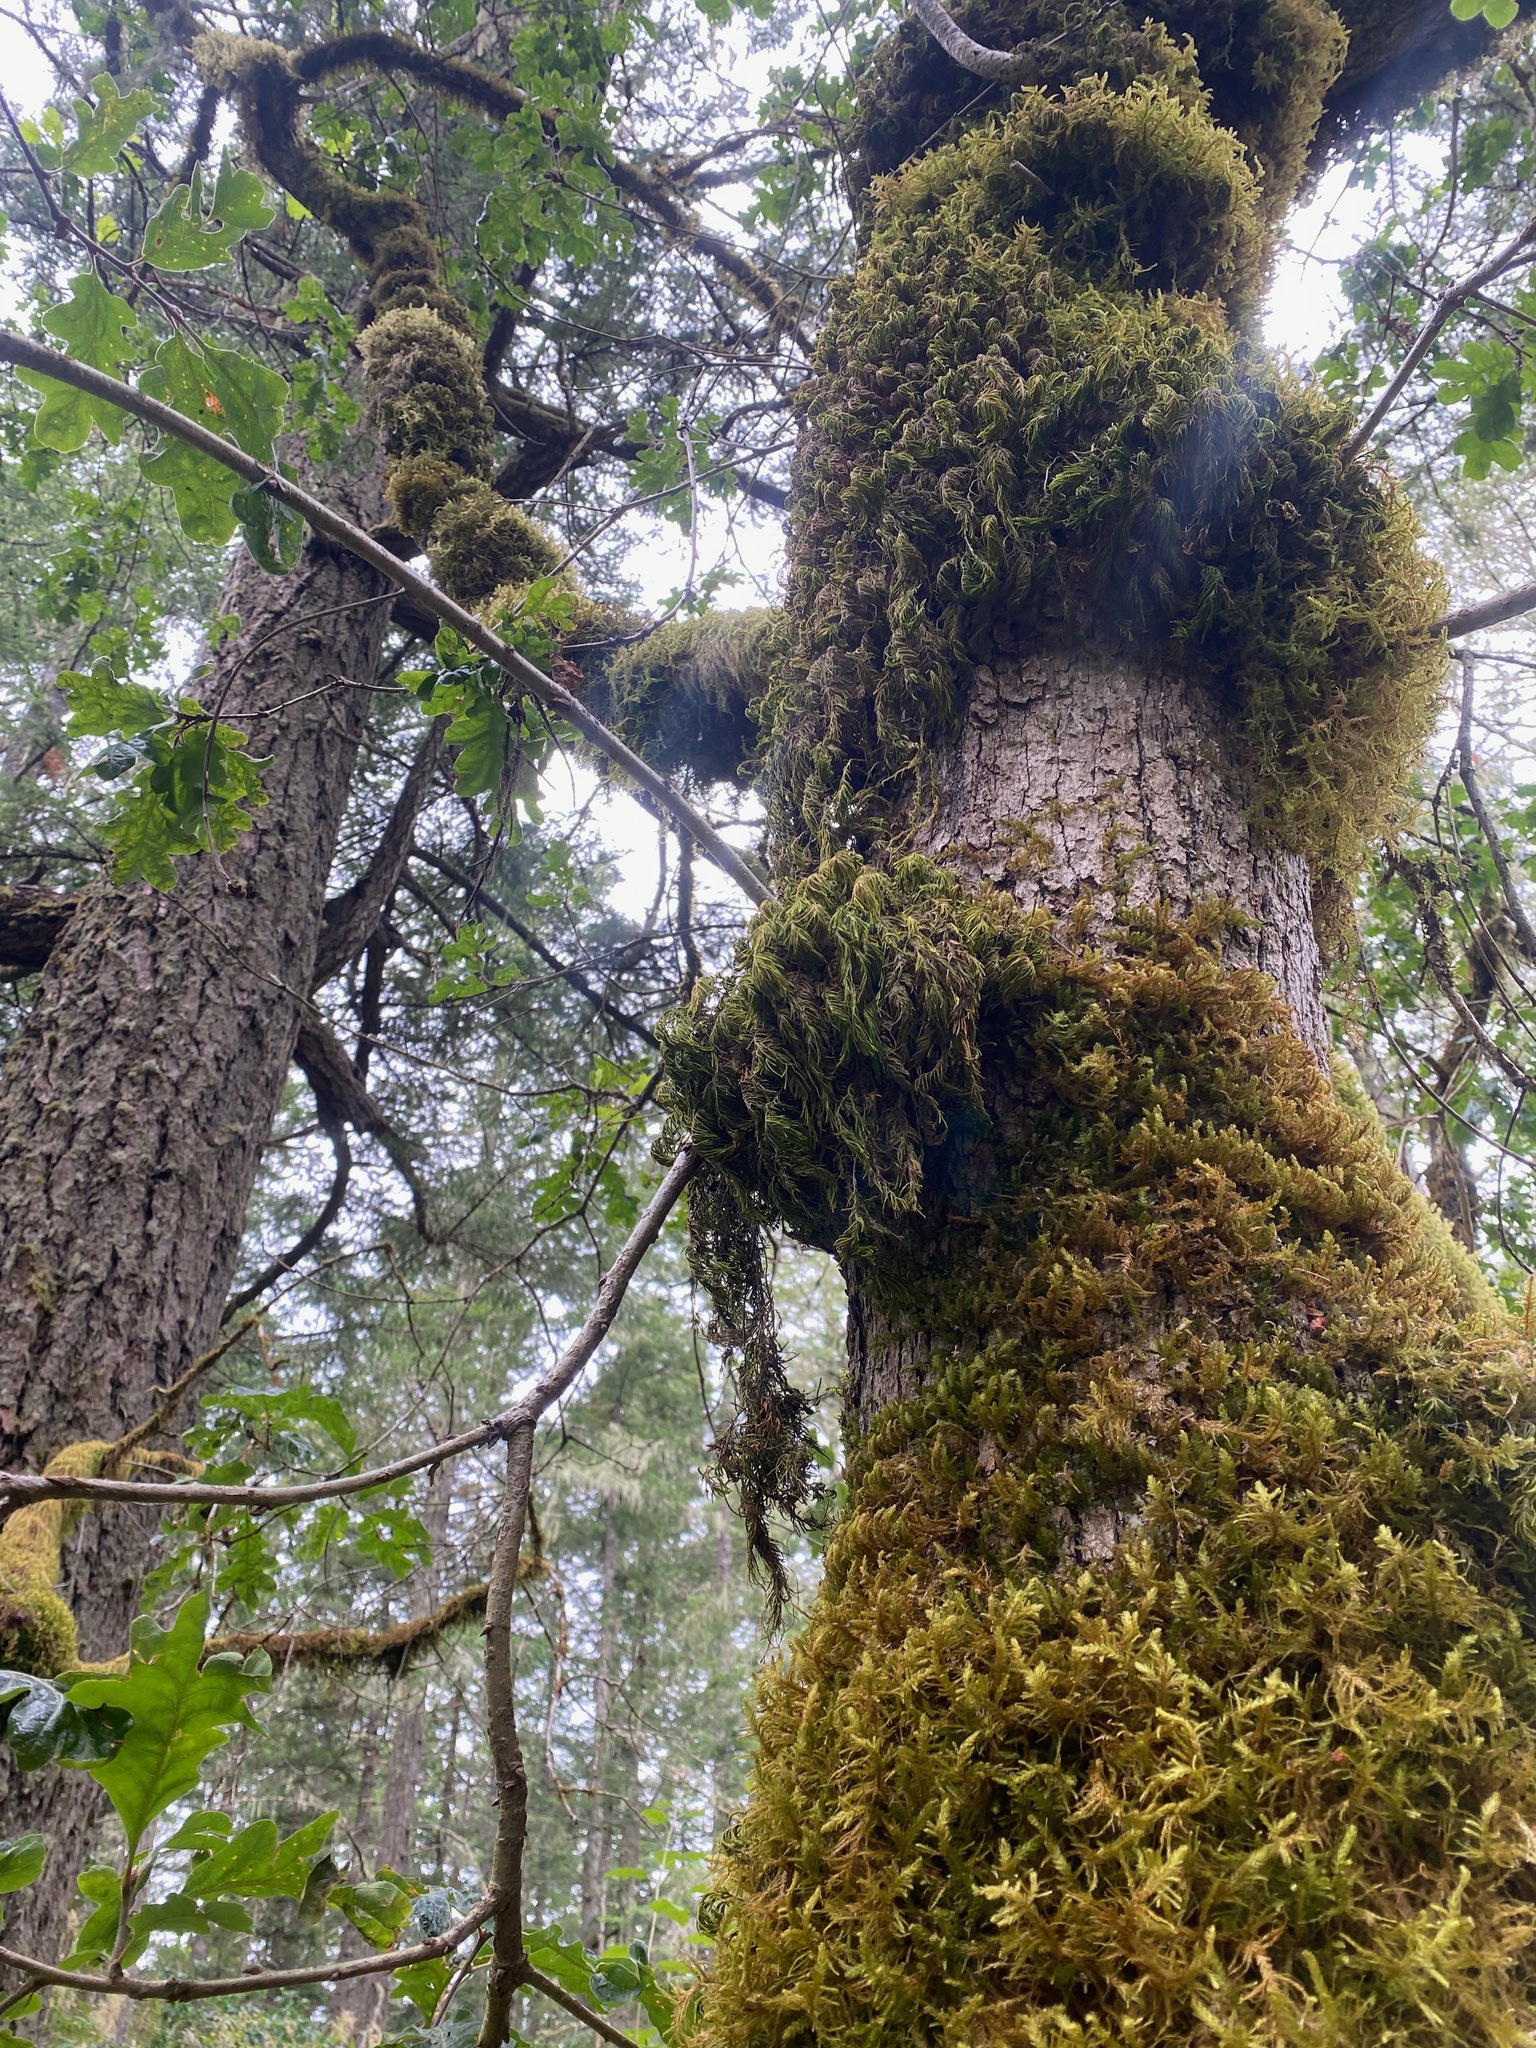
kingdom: Plantae
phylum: Bryophyta
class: Bryopsida
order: Hypnales
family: Cryphaeaceae
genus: Dendroalsia
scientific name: Dendroalsia abietina
